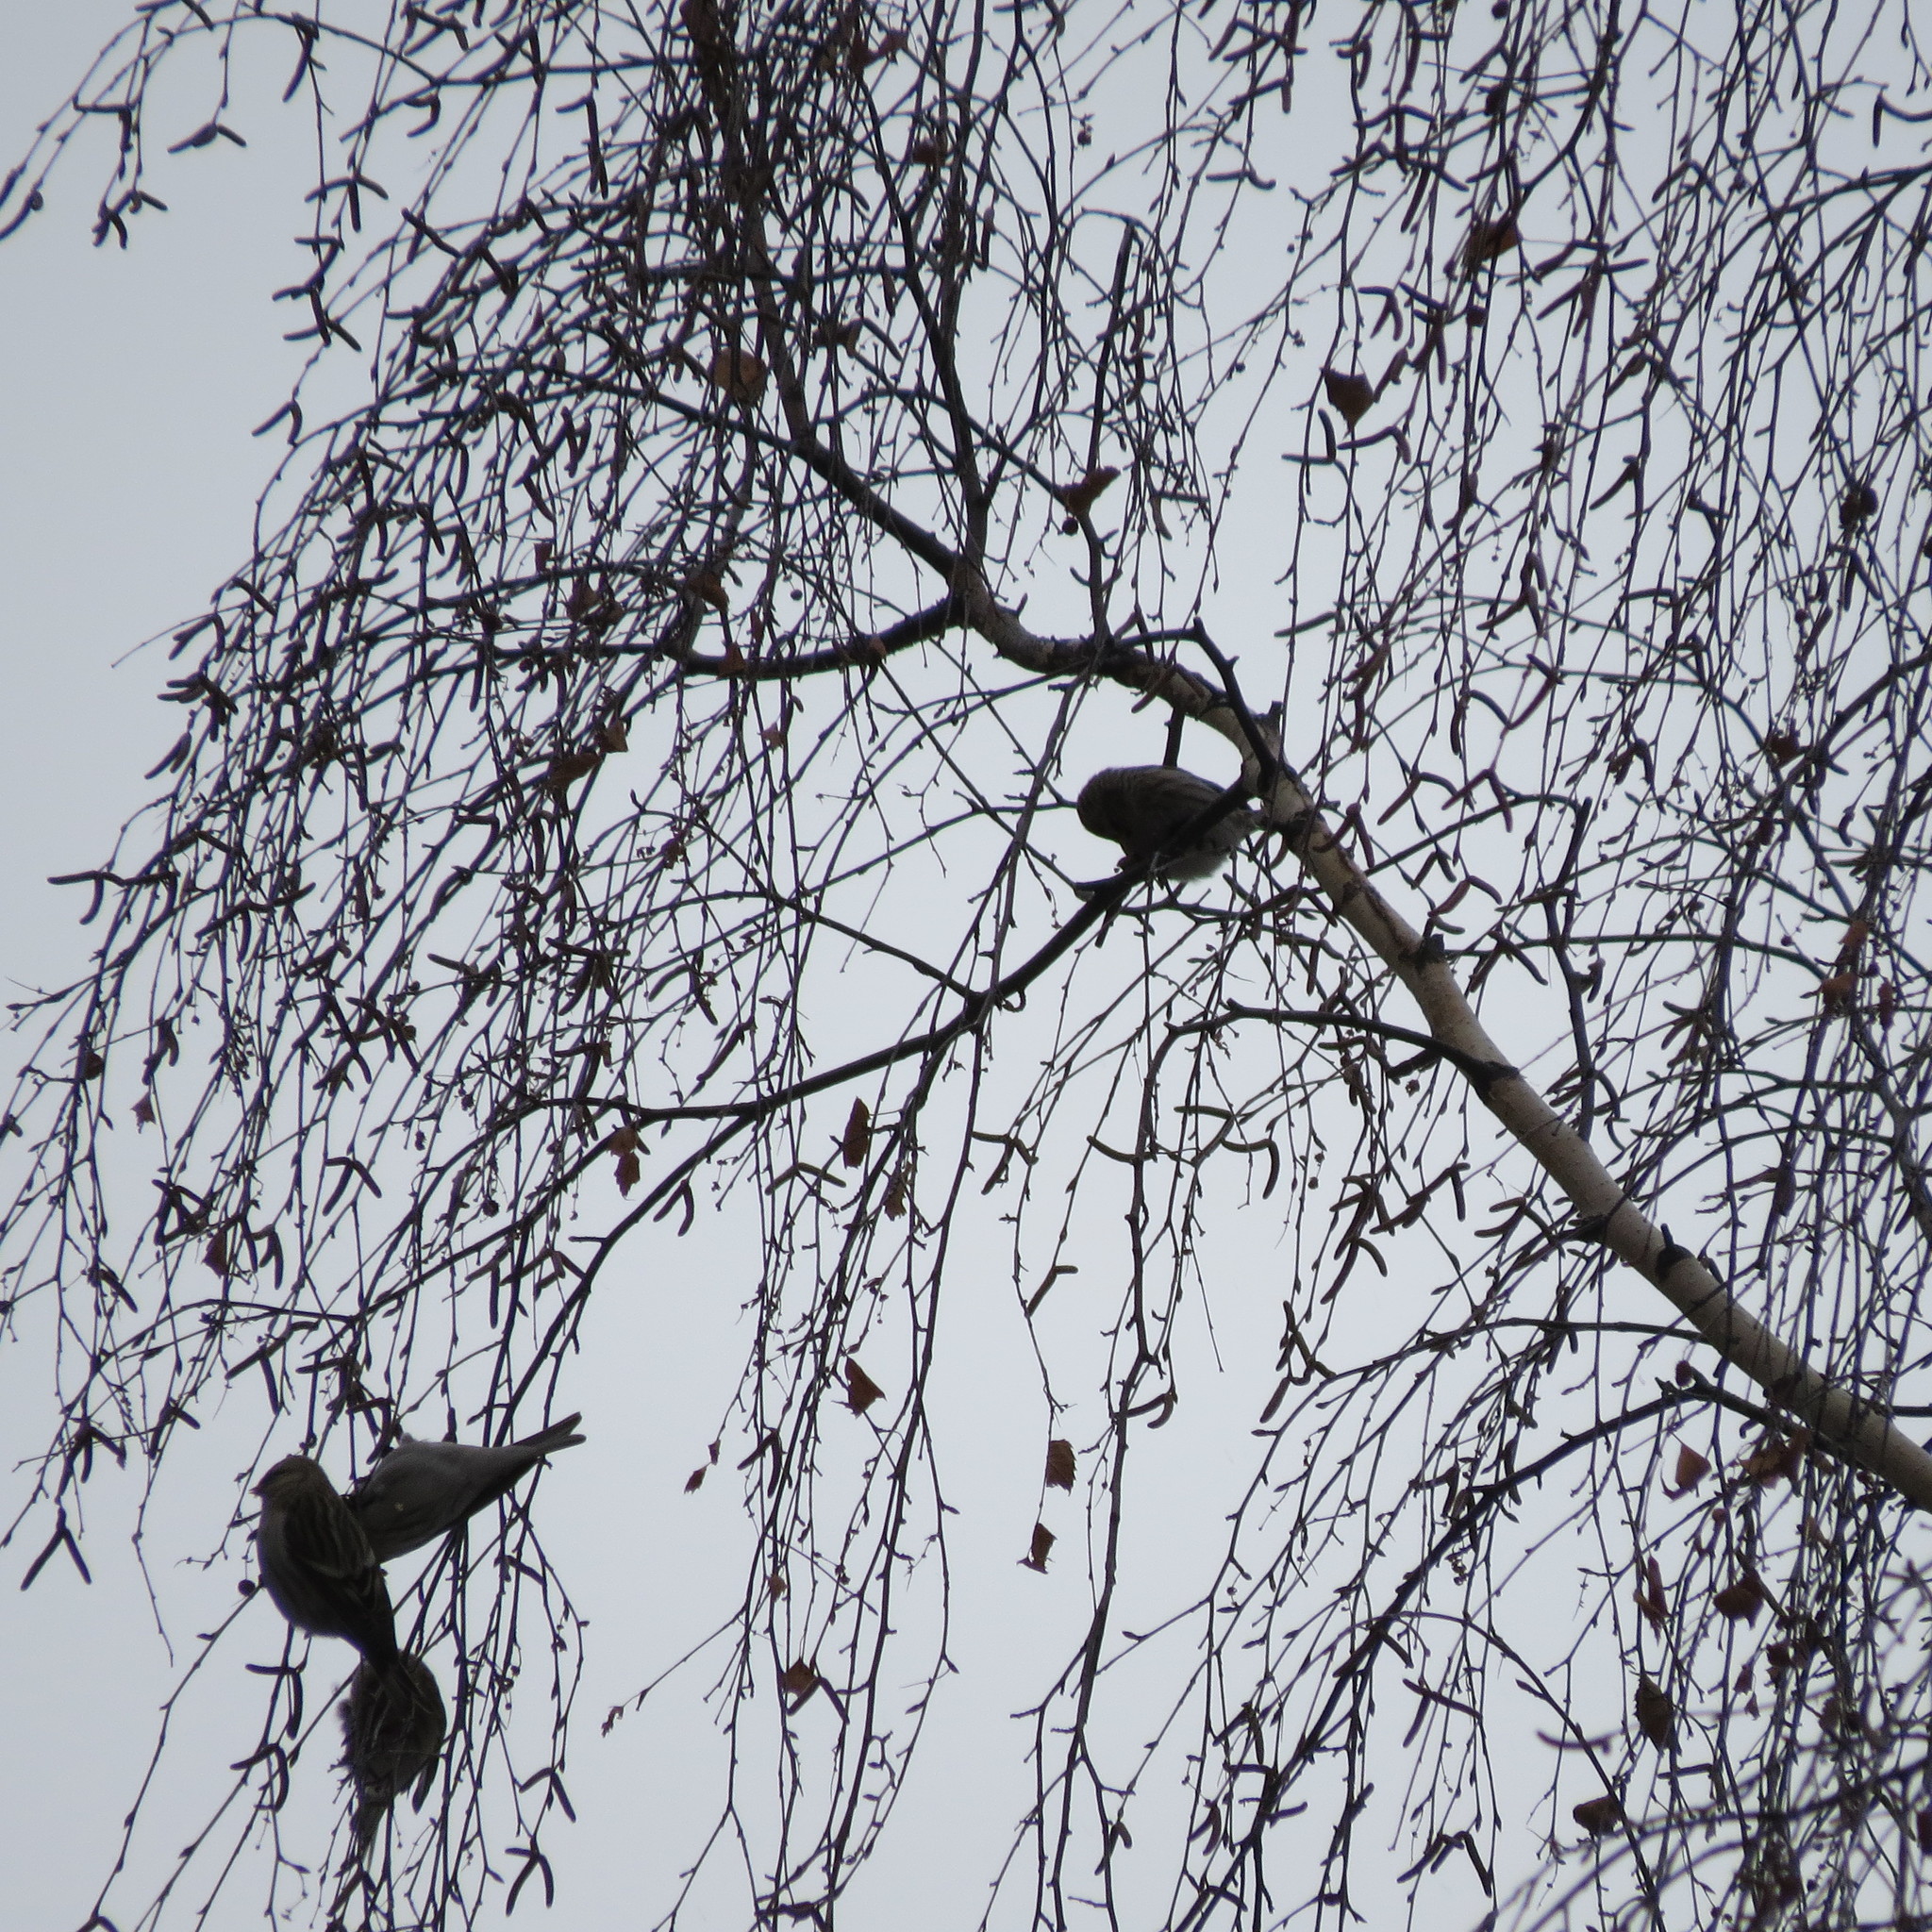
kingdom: Animalia
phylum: Chordata
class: Aves
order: Passeriformes
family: Fringillidae
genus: Acanthis
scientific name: Acanthis flammea
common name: Common redpoll
